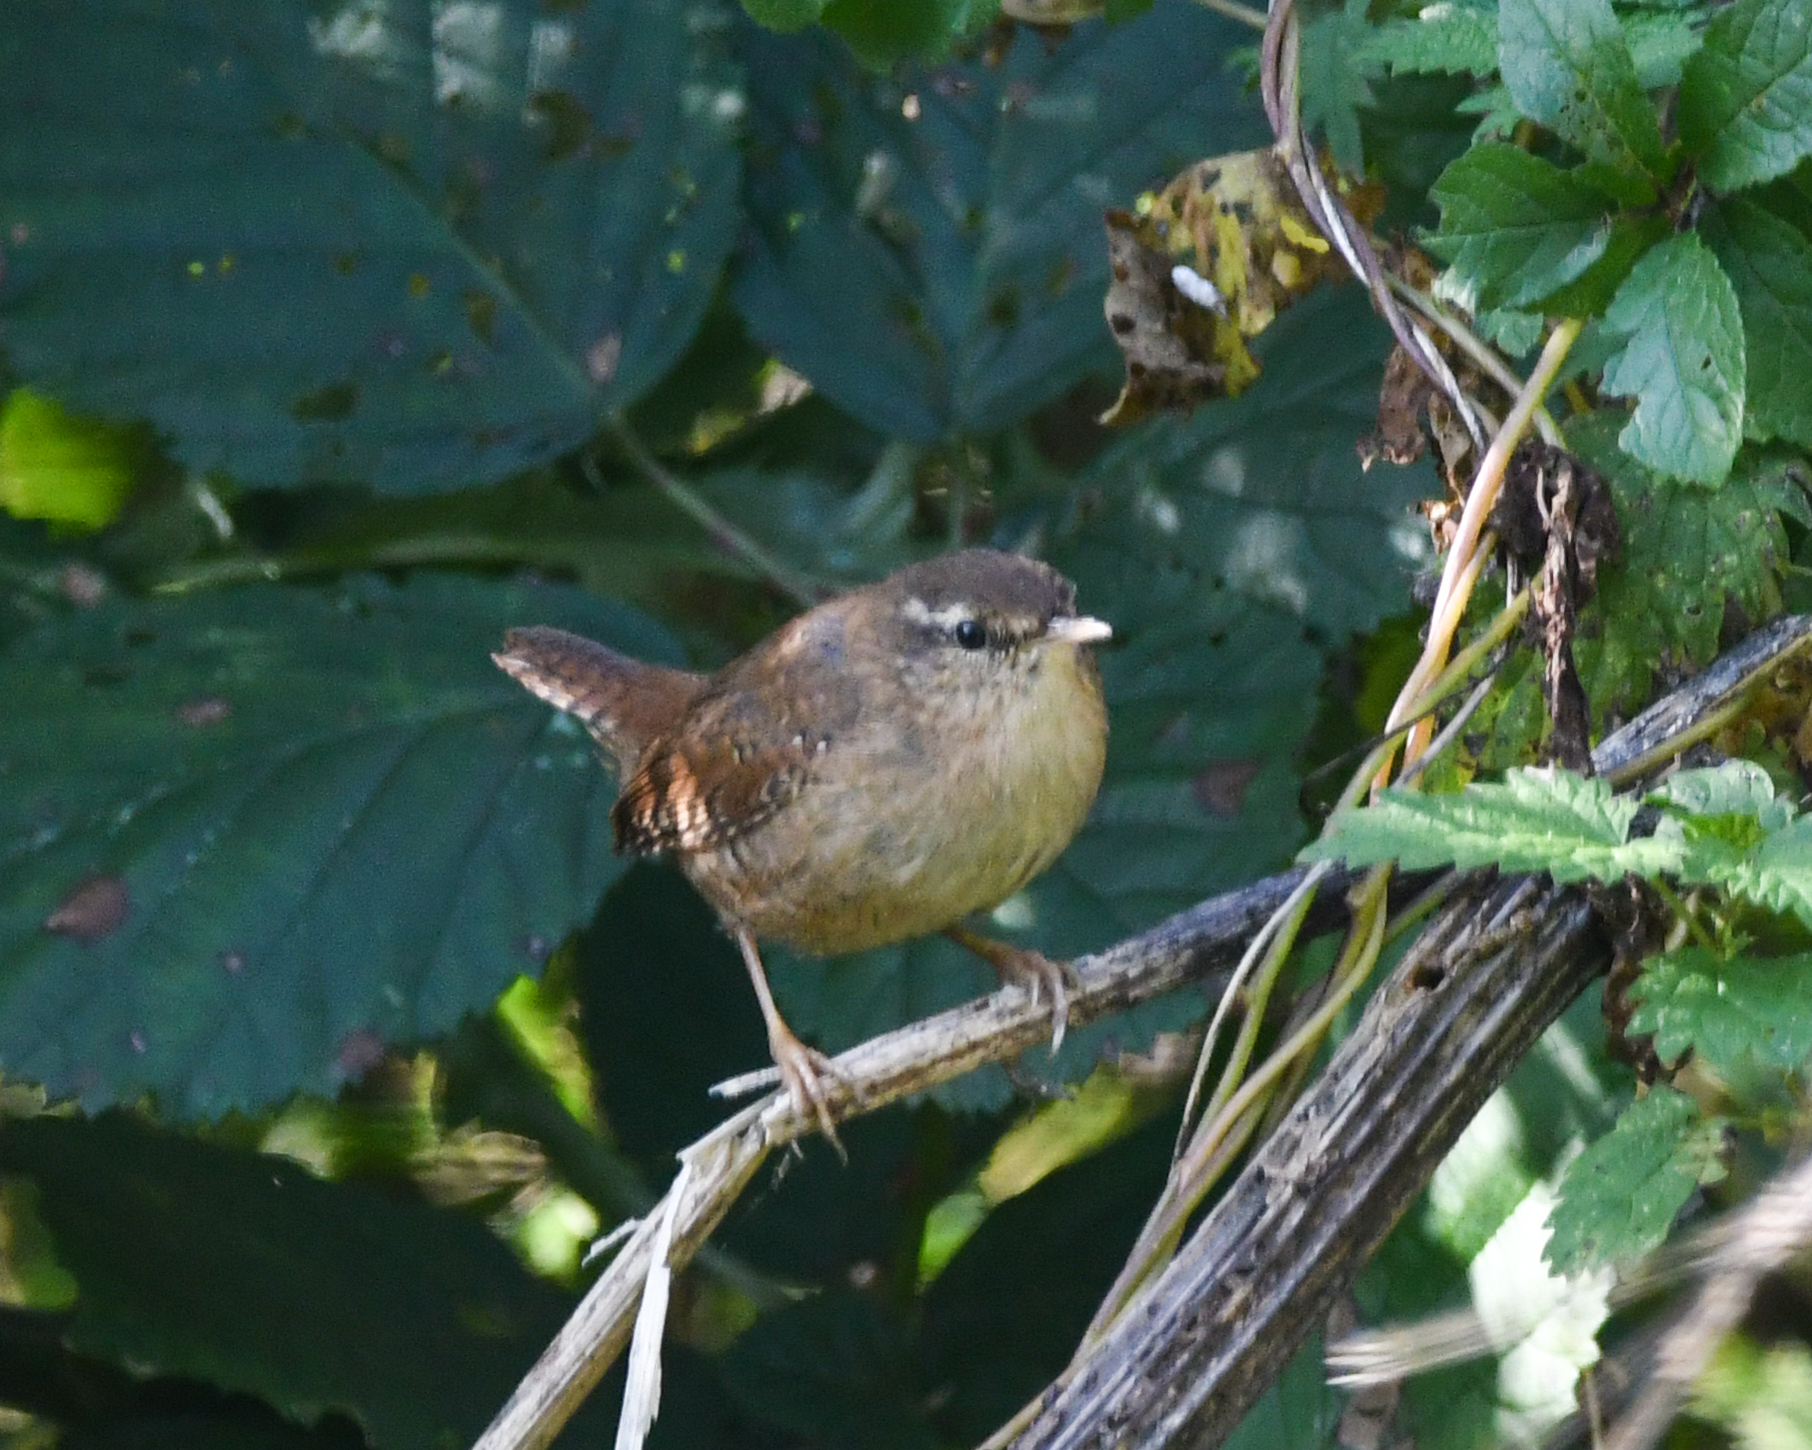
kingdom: Animalia
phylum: Chordata
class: Aves
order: Passeriformes
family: Troglodytidae
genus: Troglodytes
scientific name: Troglodytes troglodytes
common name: Eurasian wren
